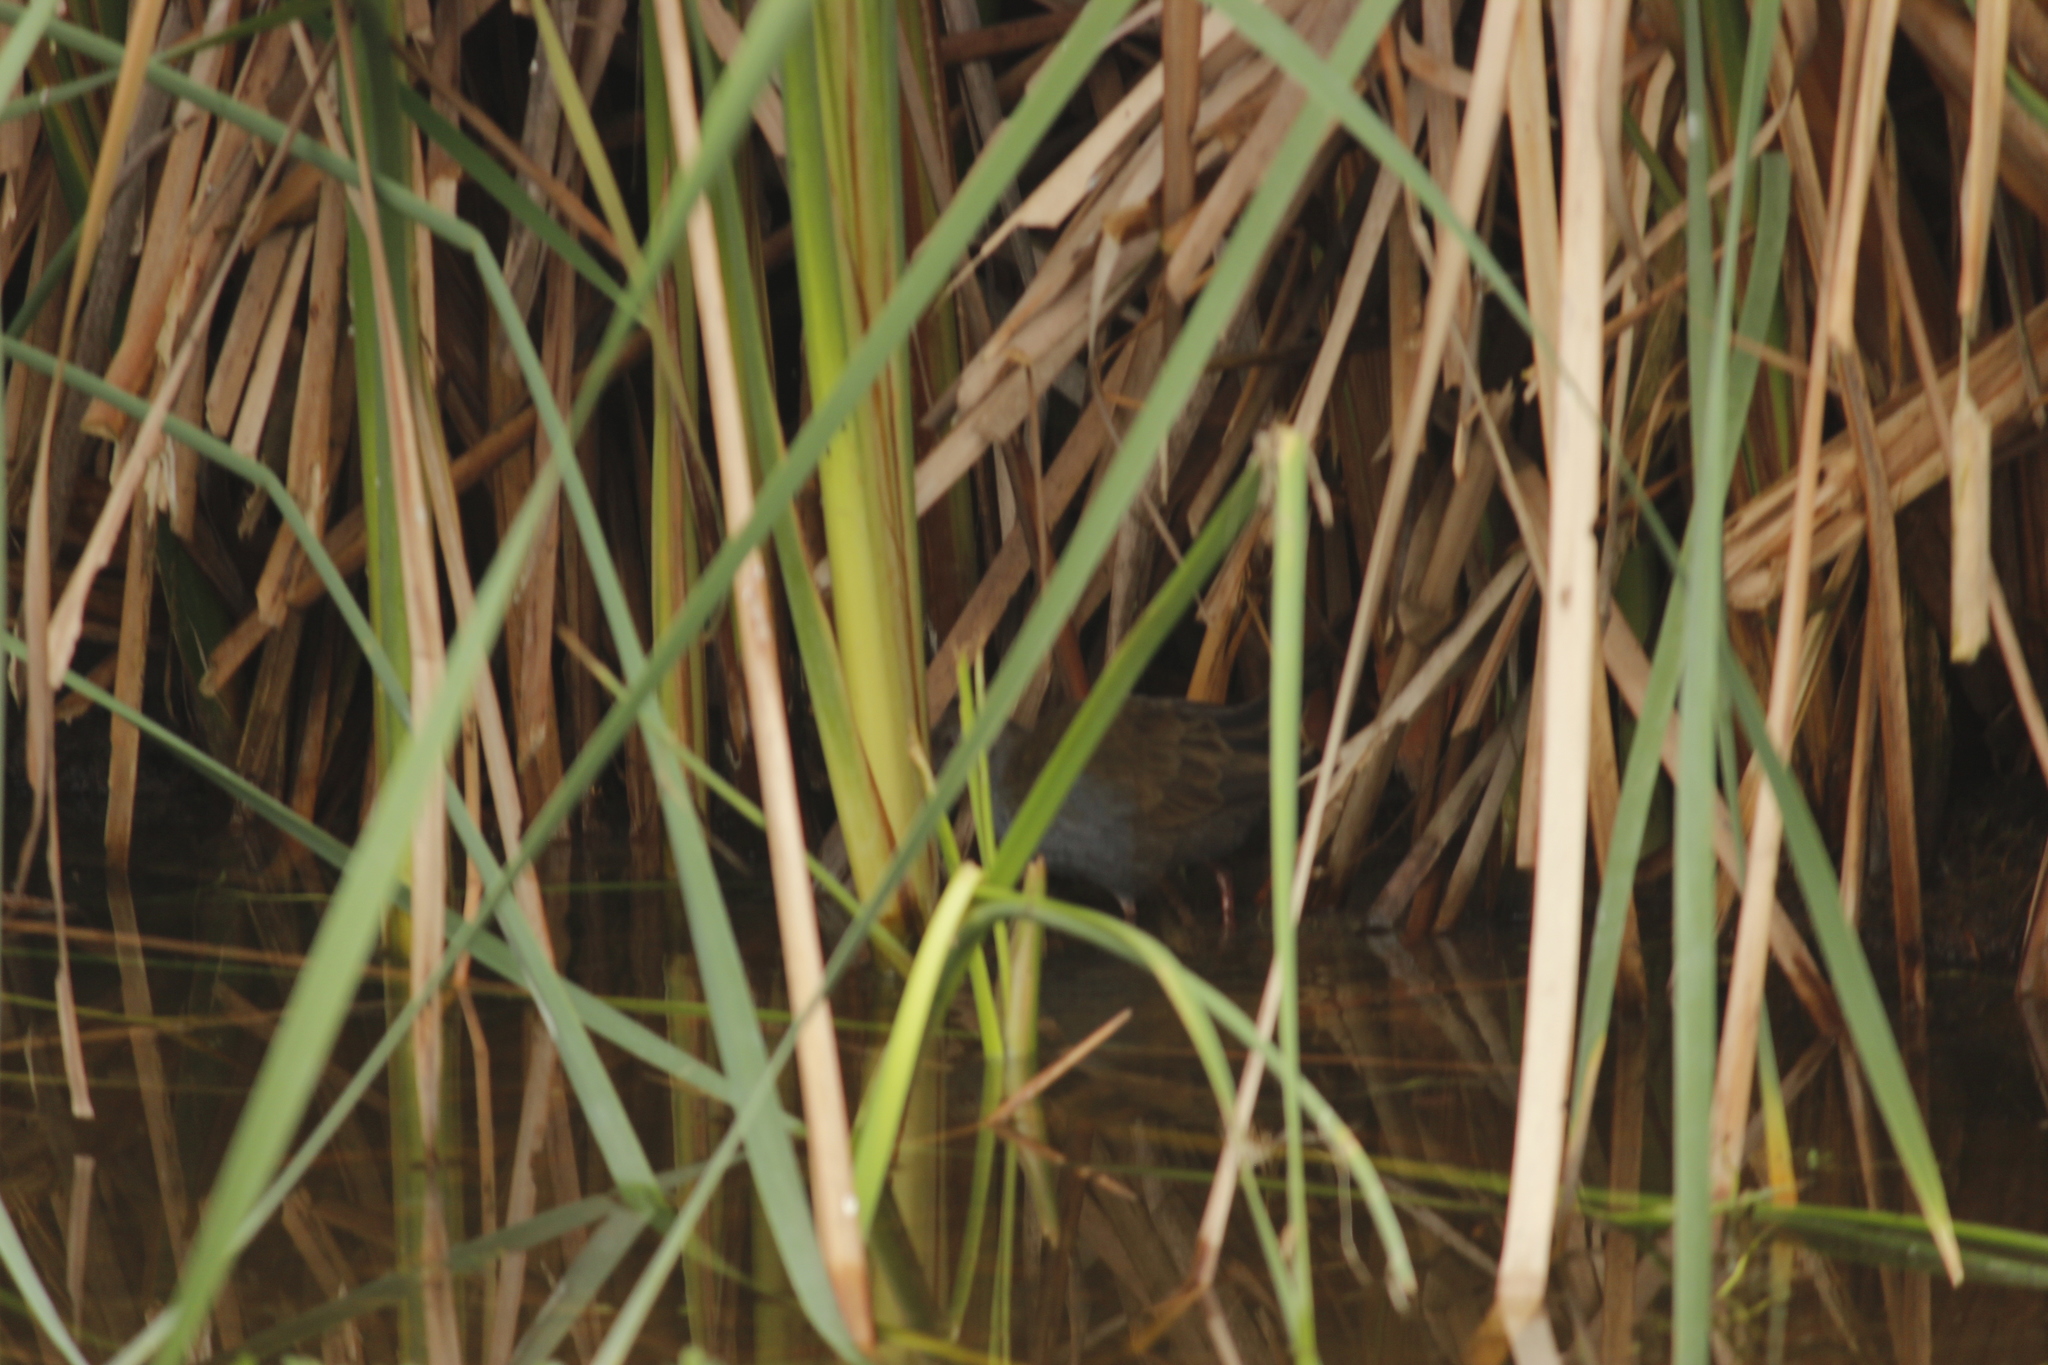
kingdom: Animalia
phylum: Chordata
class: Aves
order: Gruiformes
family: Rallidae
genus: Pardirallus
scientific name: Pardirallus sanguinolentus
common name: Plumbeous rail
